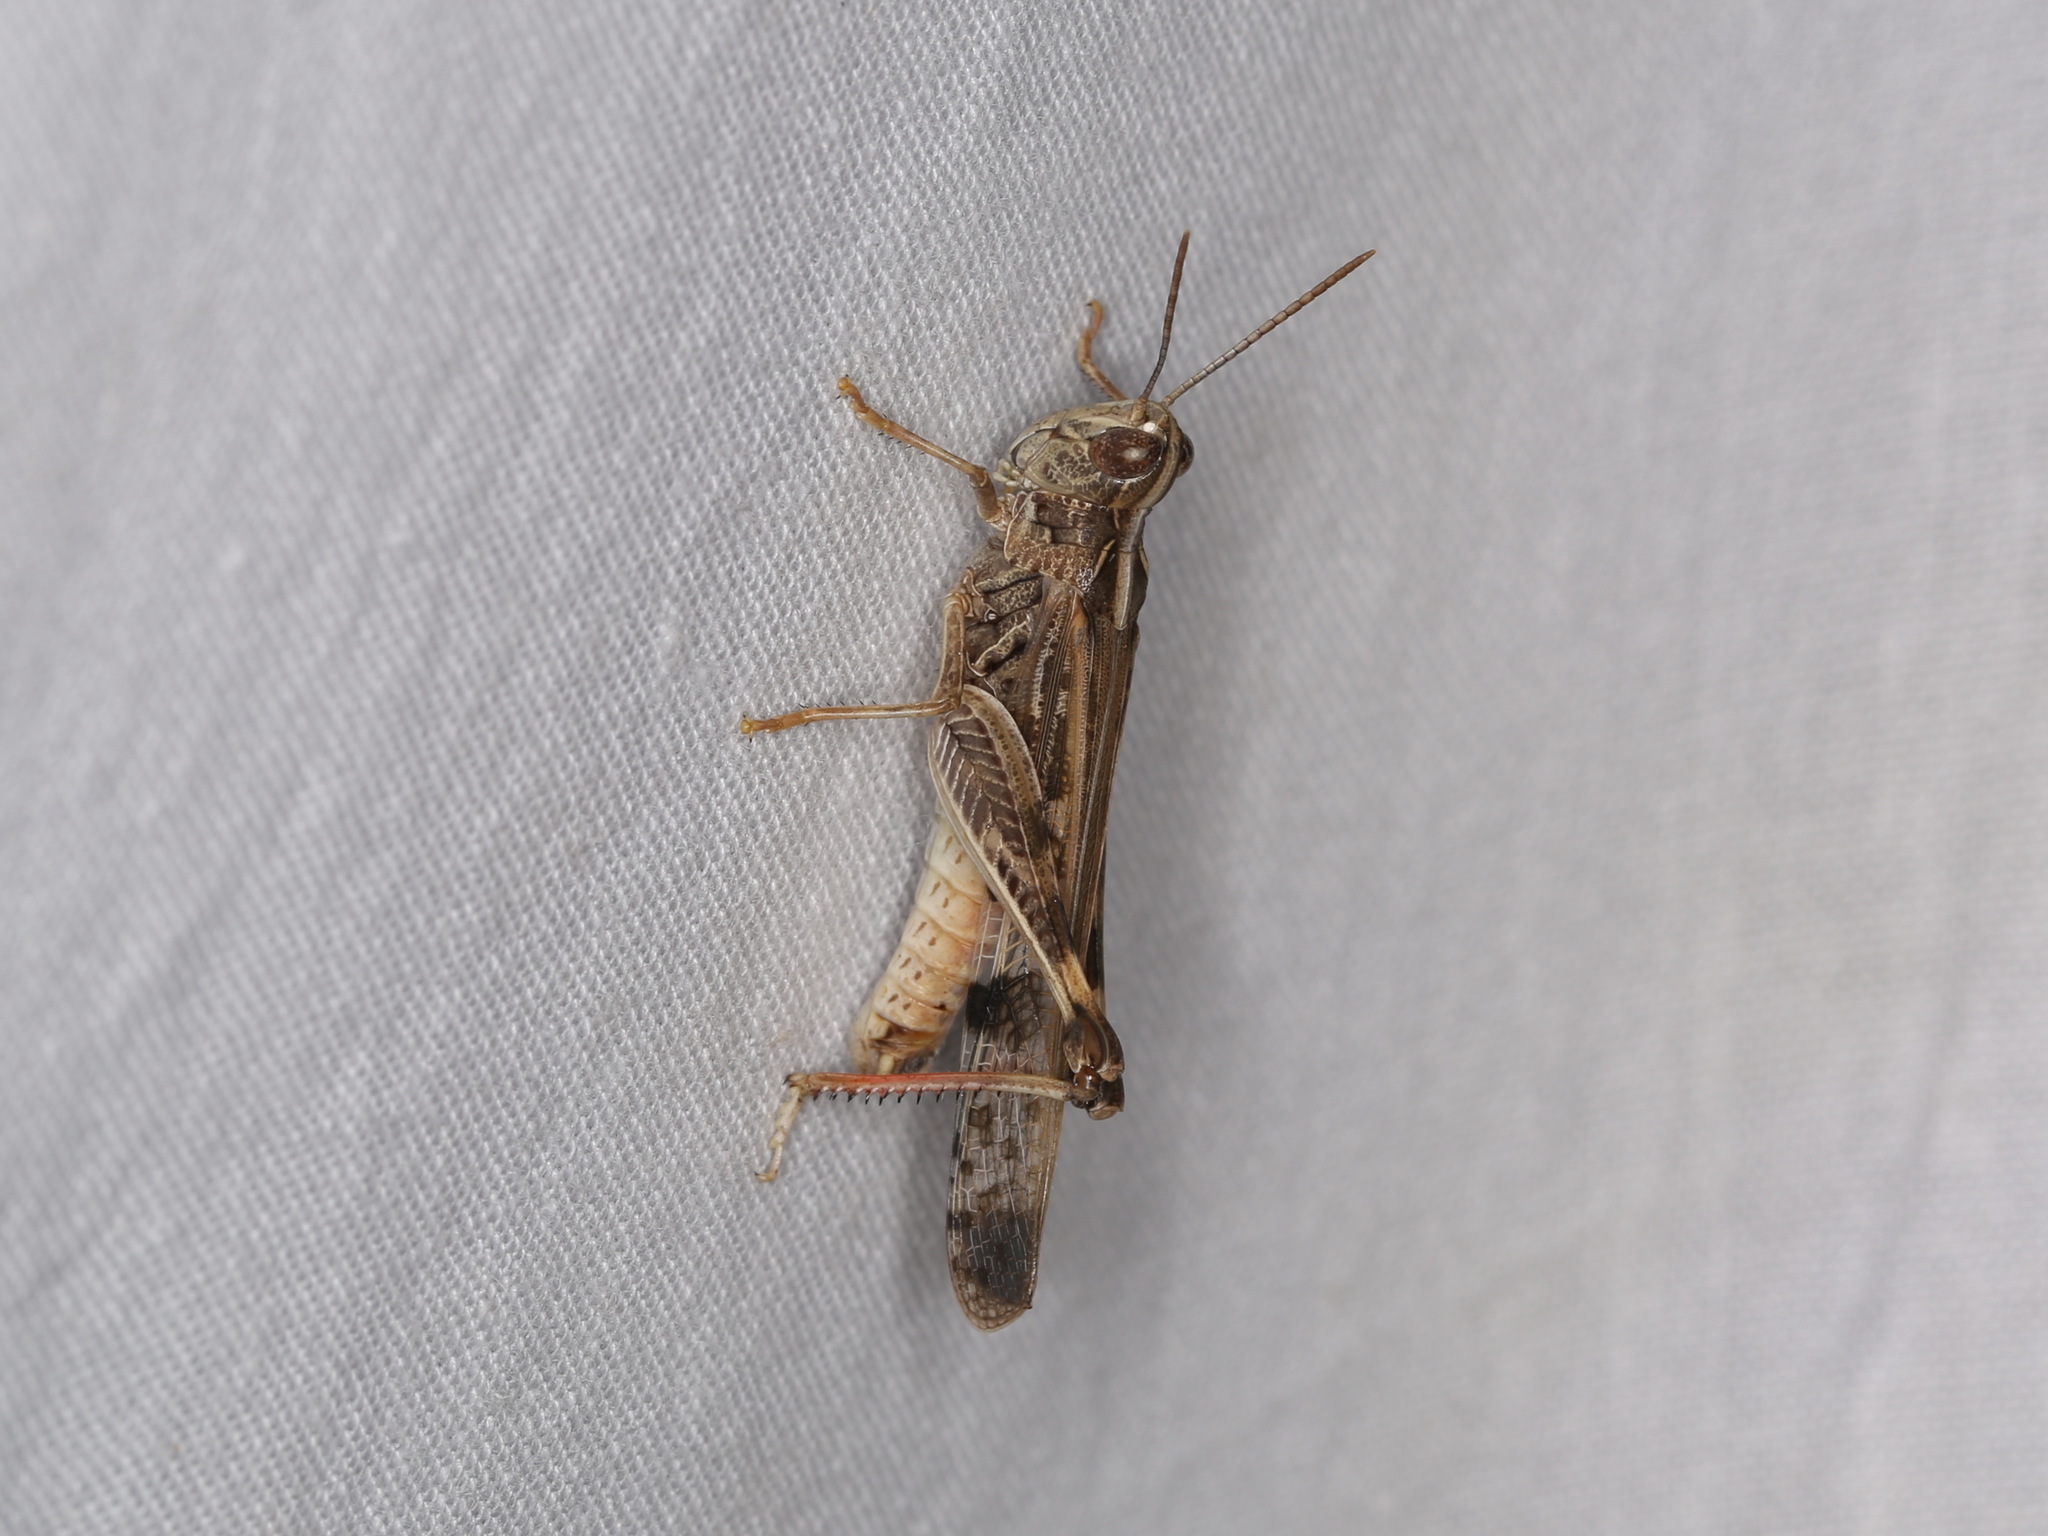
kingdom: Animalia
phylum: Arthropoda
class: Insecta
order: Orthoptera
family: Acrididae
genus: Chortoicetes
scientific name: Chortoicetes terminifera
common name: Australian plague locust
